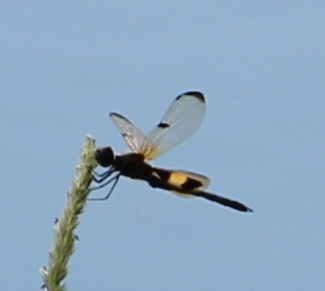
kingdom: Animalia
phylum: Arthropoda
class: Insecta
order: Odonata
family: Libellulidae
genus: Rhyothemis
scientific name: Rhyothemis phyllis
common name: Yellow-barred flutterer
